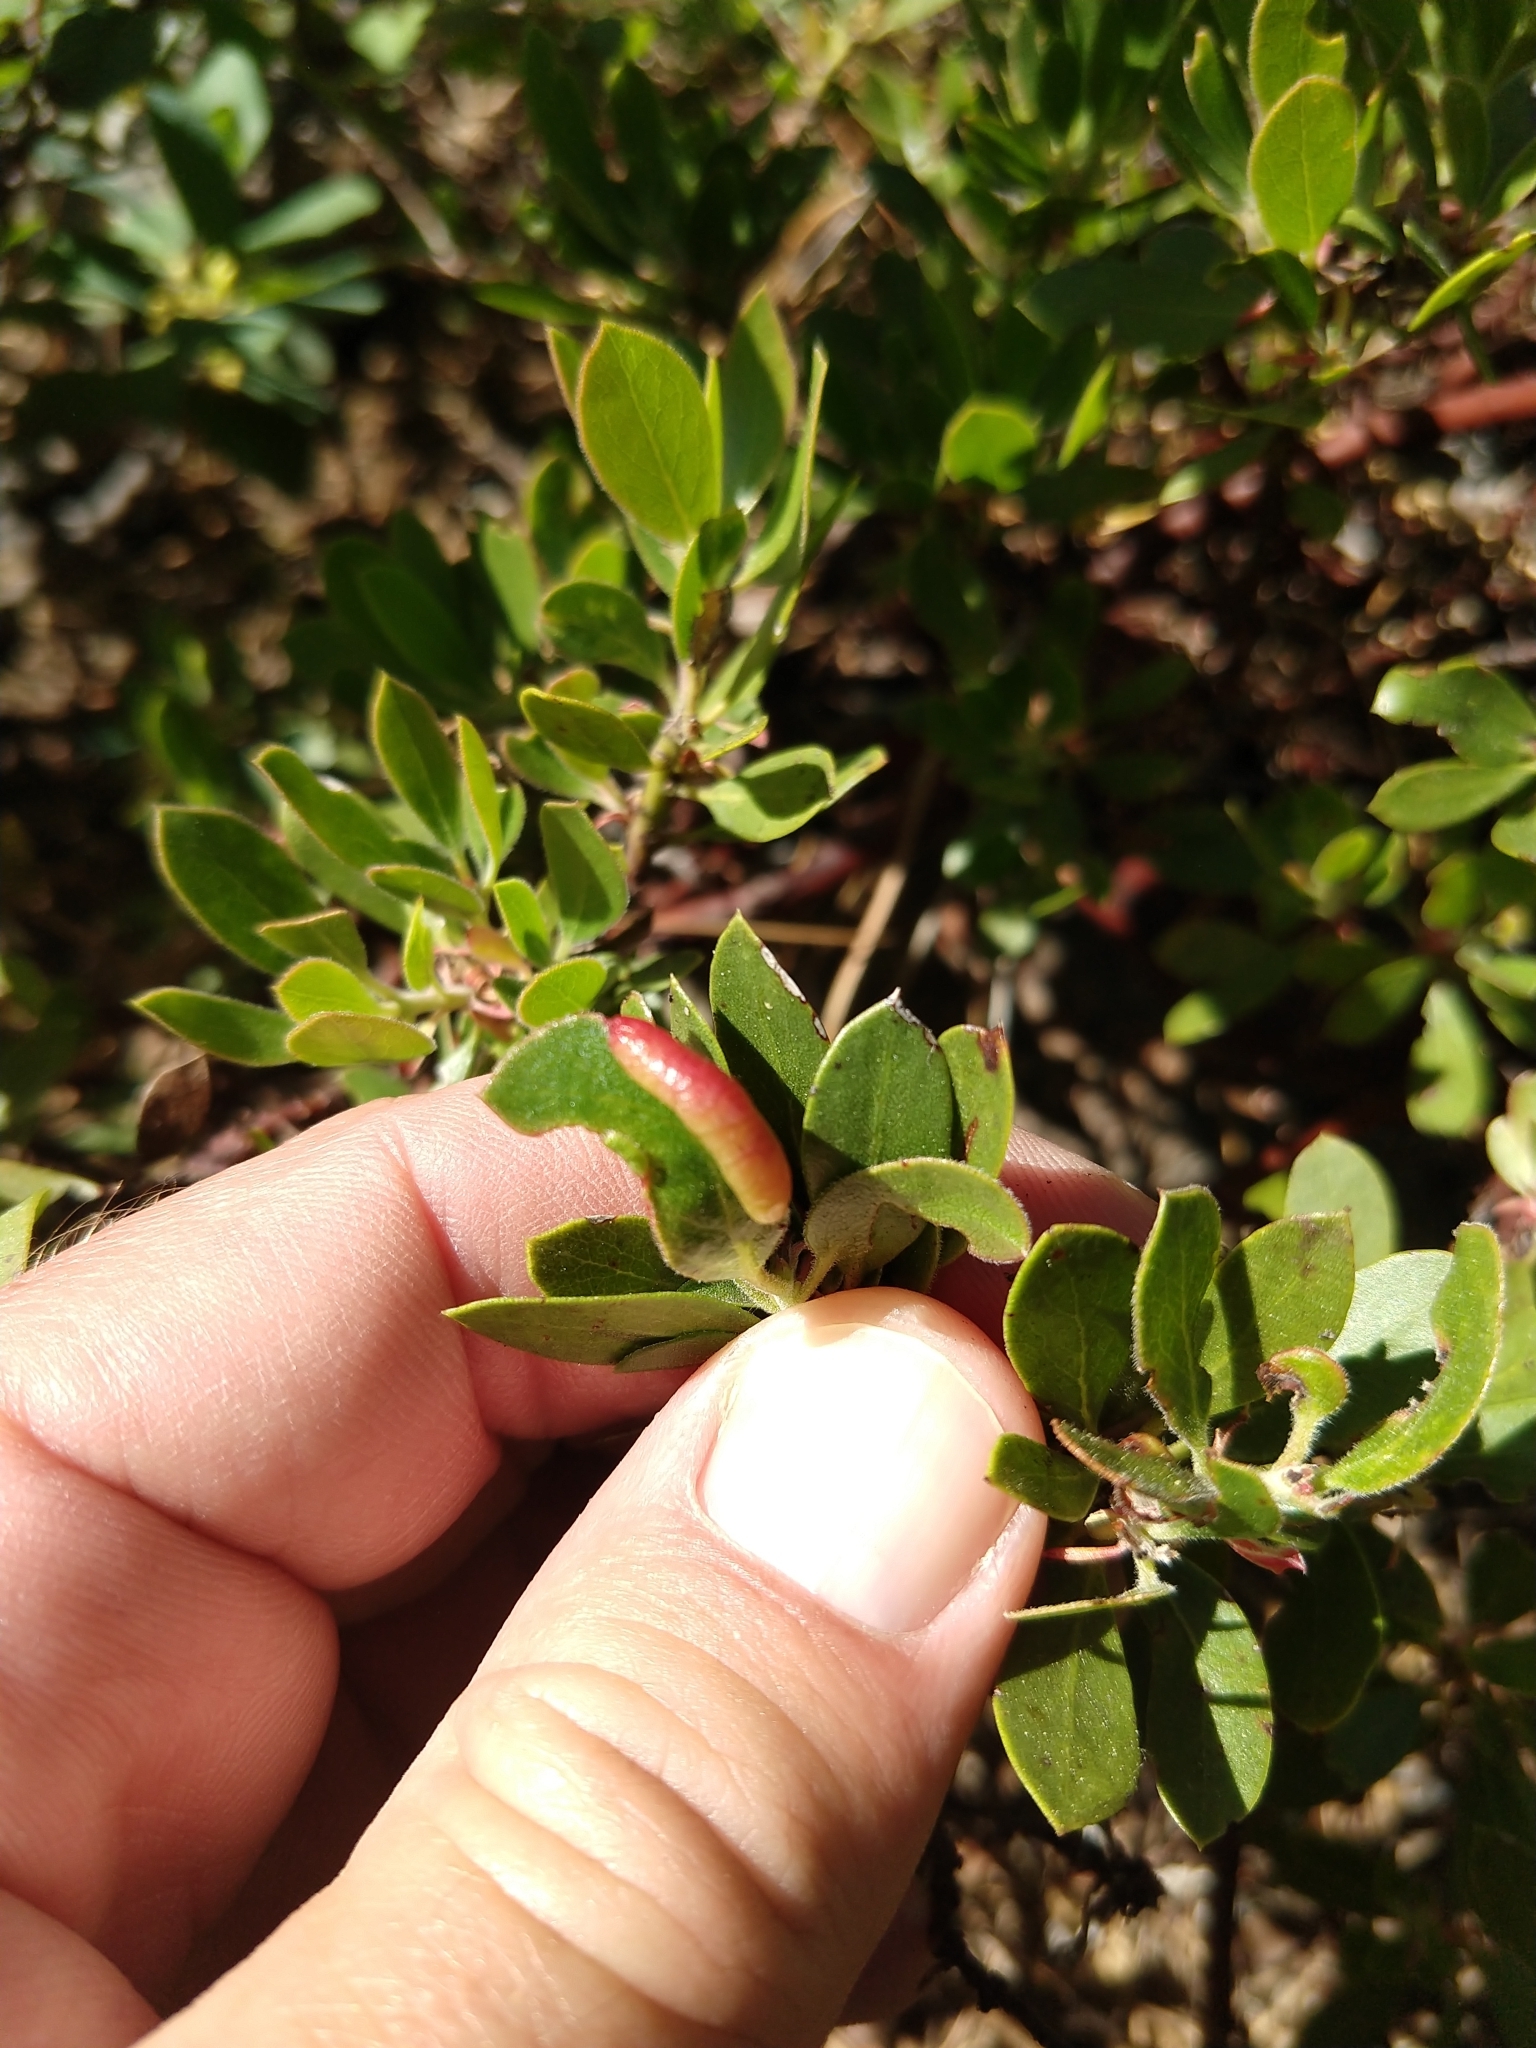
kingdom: Animalia
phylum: Arthropoda
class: Insecta
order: Hemiptera
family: Aphididae
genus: Tamalia
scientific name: Tamalia coweni
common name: Manzanita leafgall aphid
